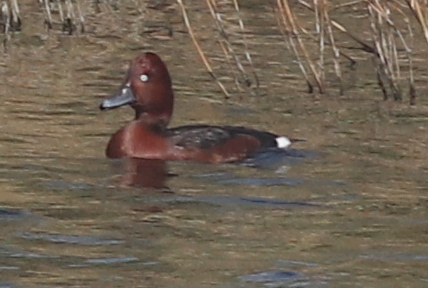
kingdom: Animalia
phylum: Chordata
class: Aves
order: Anseriformes
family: Anatidae
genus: Aythya
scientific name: Aythya nyroca
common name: Ferruginous duck
